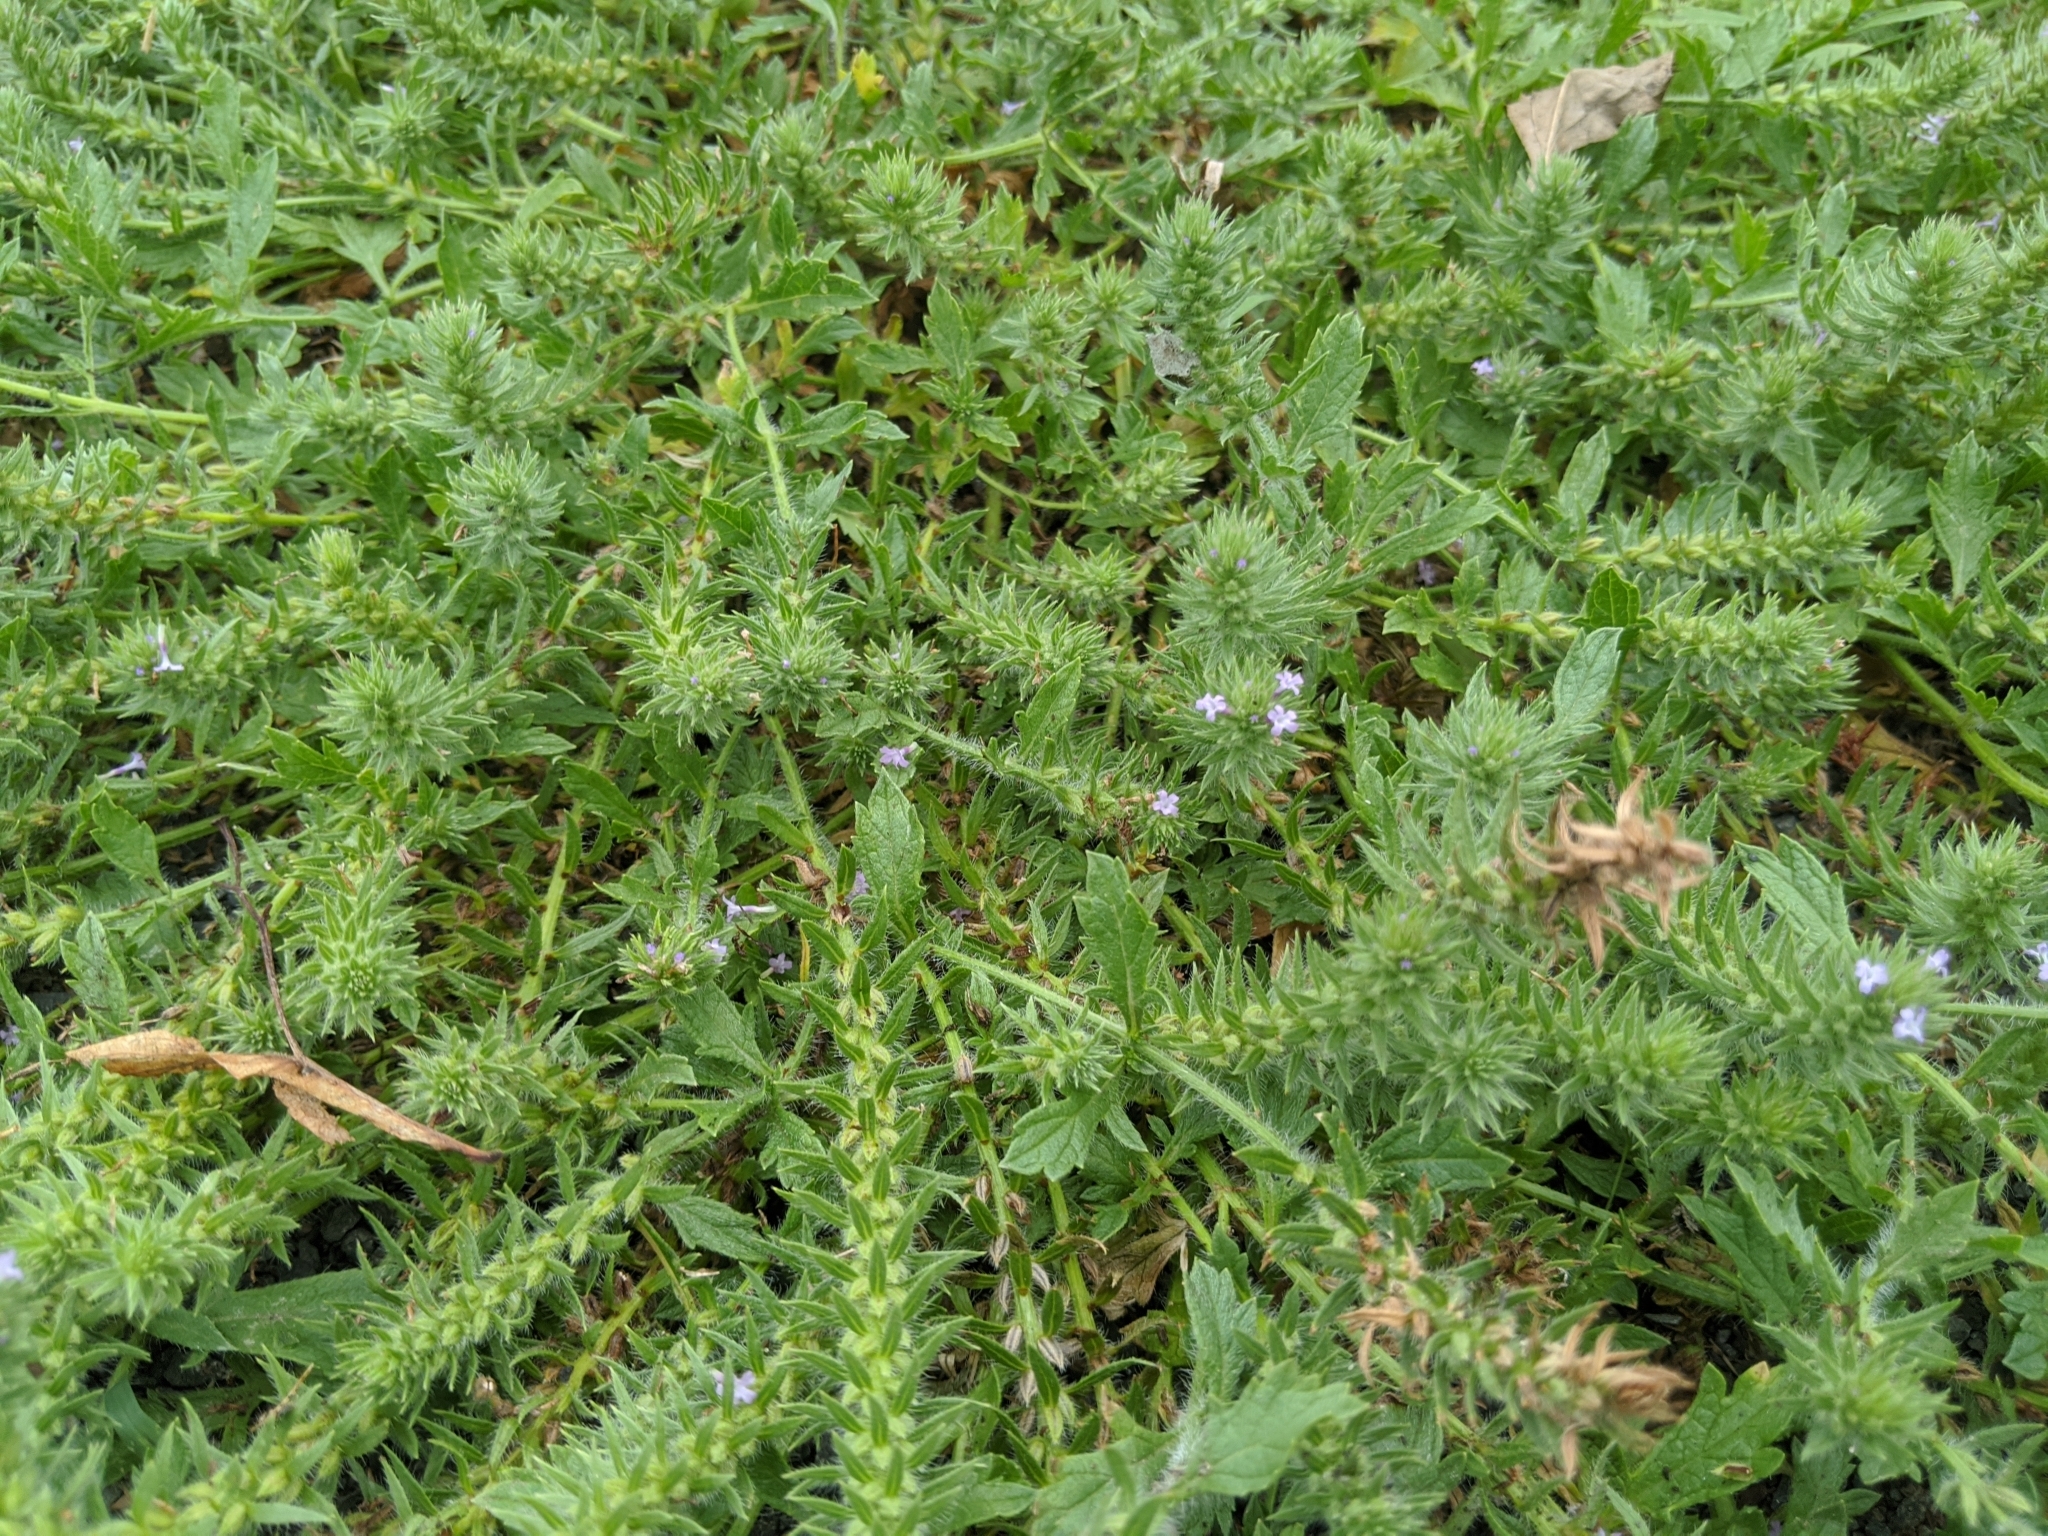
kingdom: Plantae
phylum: Tracheophyta
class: Magnoliopsida
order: Lamiales
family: Verbenaceae
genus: Verbena
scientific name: Verbena bracteata
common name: Bracted vervain
